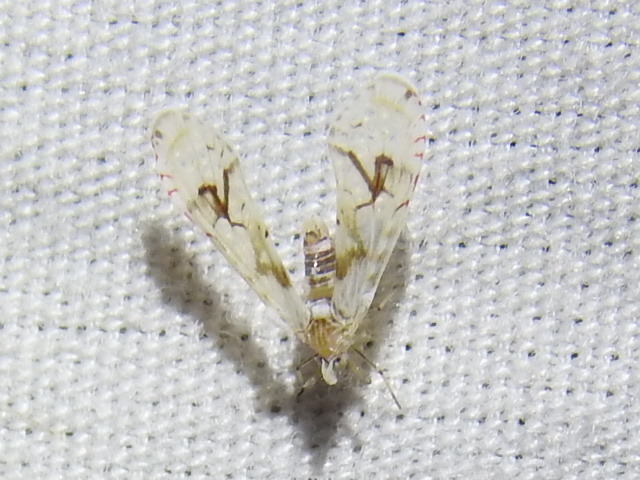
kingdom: Animalia
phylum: Arthropoda
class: Insecta
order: Hemiptera
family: Derbidae
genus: Anotia
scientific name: Anotia robertsonii
